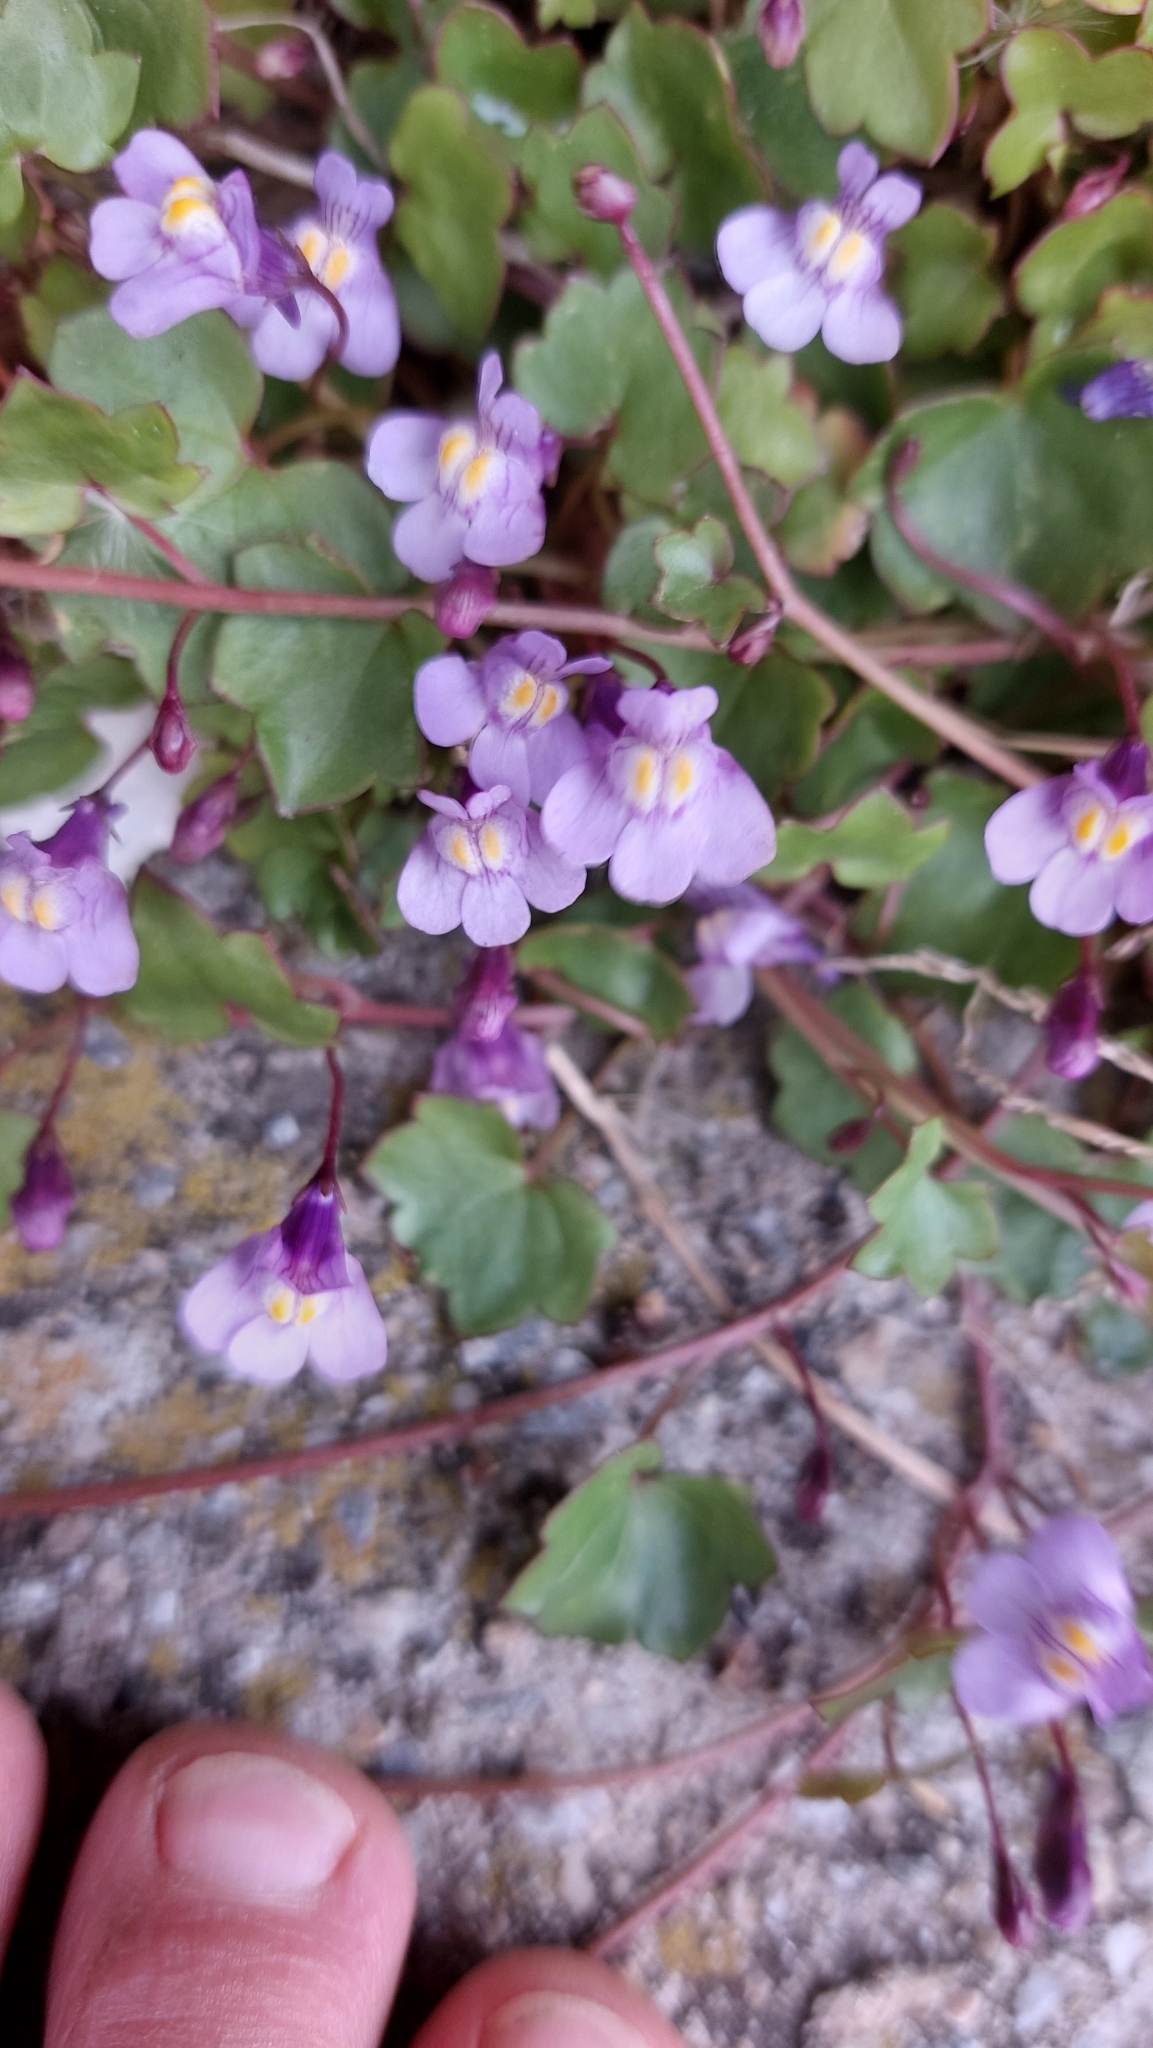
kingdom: Plantae
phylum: Tracheophyta
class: Magnoliopsida
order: Lamiales
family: Plantaginaceae
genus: Cymbalaria
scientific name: Cymbalaria muralis
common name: Ivy-leaved toadflax
